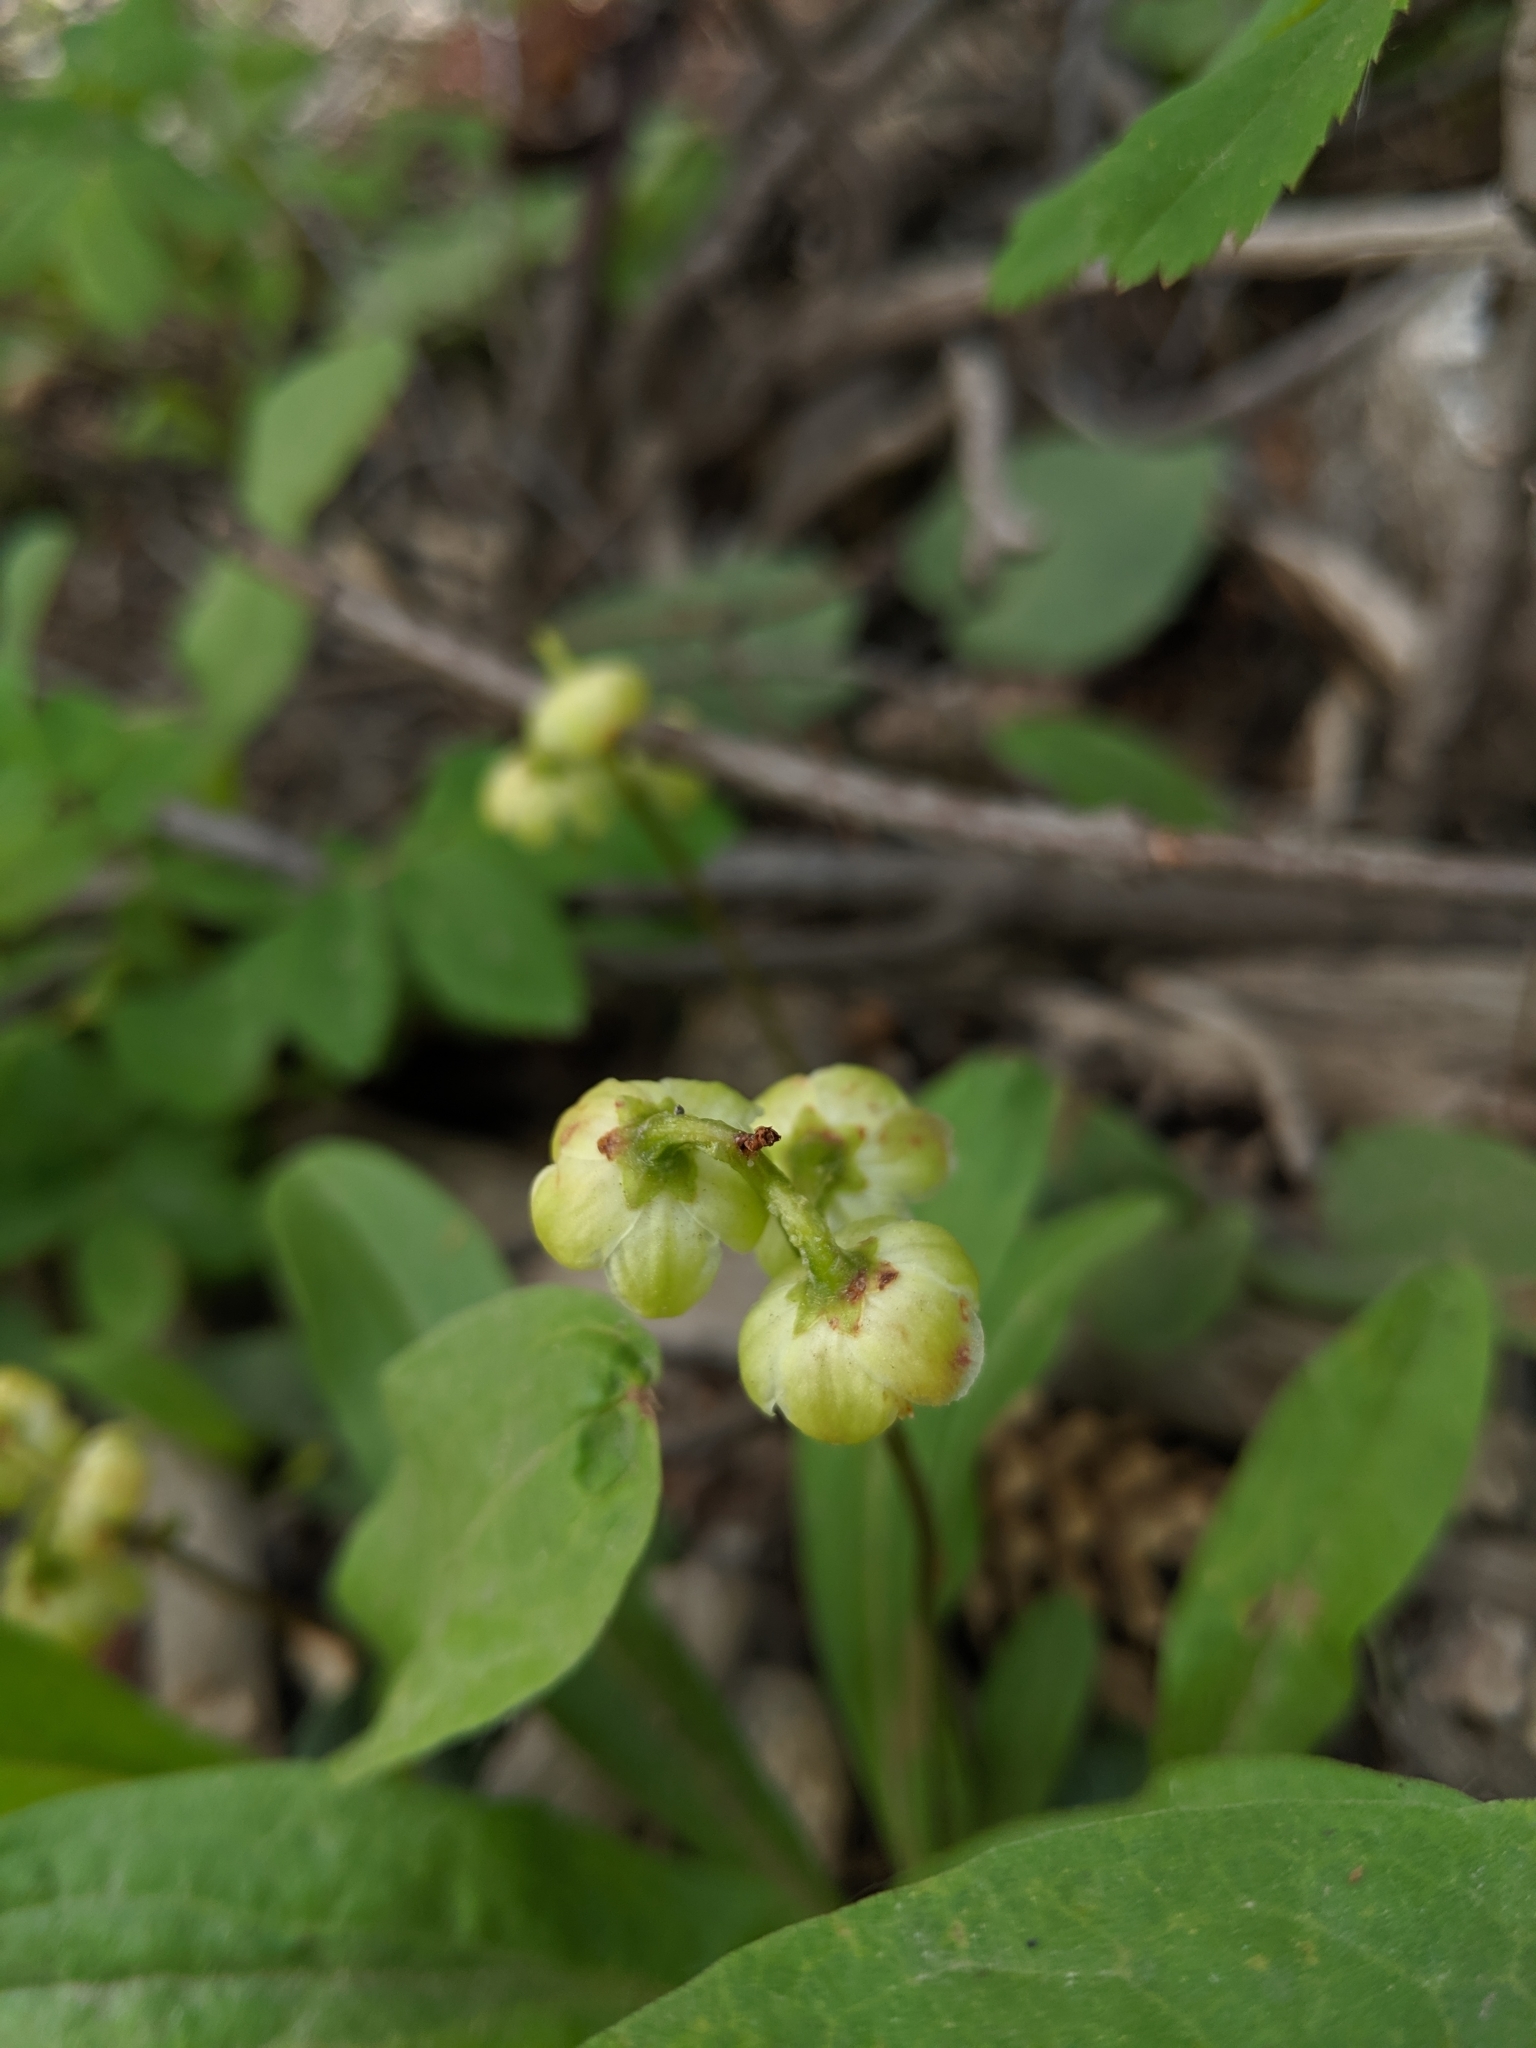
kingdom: Plantae
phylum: Tracheophyta
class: Magnoliopsida
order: Ericales
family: Ericaceae
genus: Pyrola
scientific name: Pyrola chlorantha
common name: Green wintergreen
